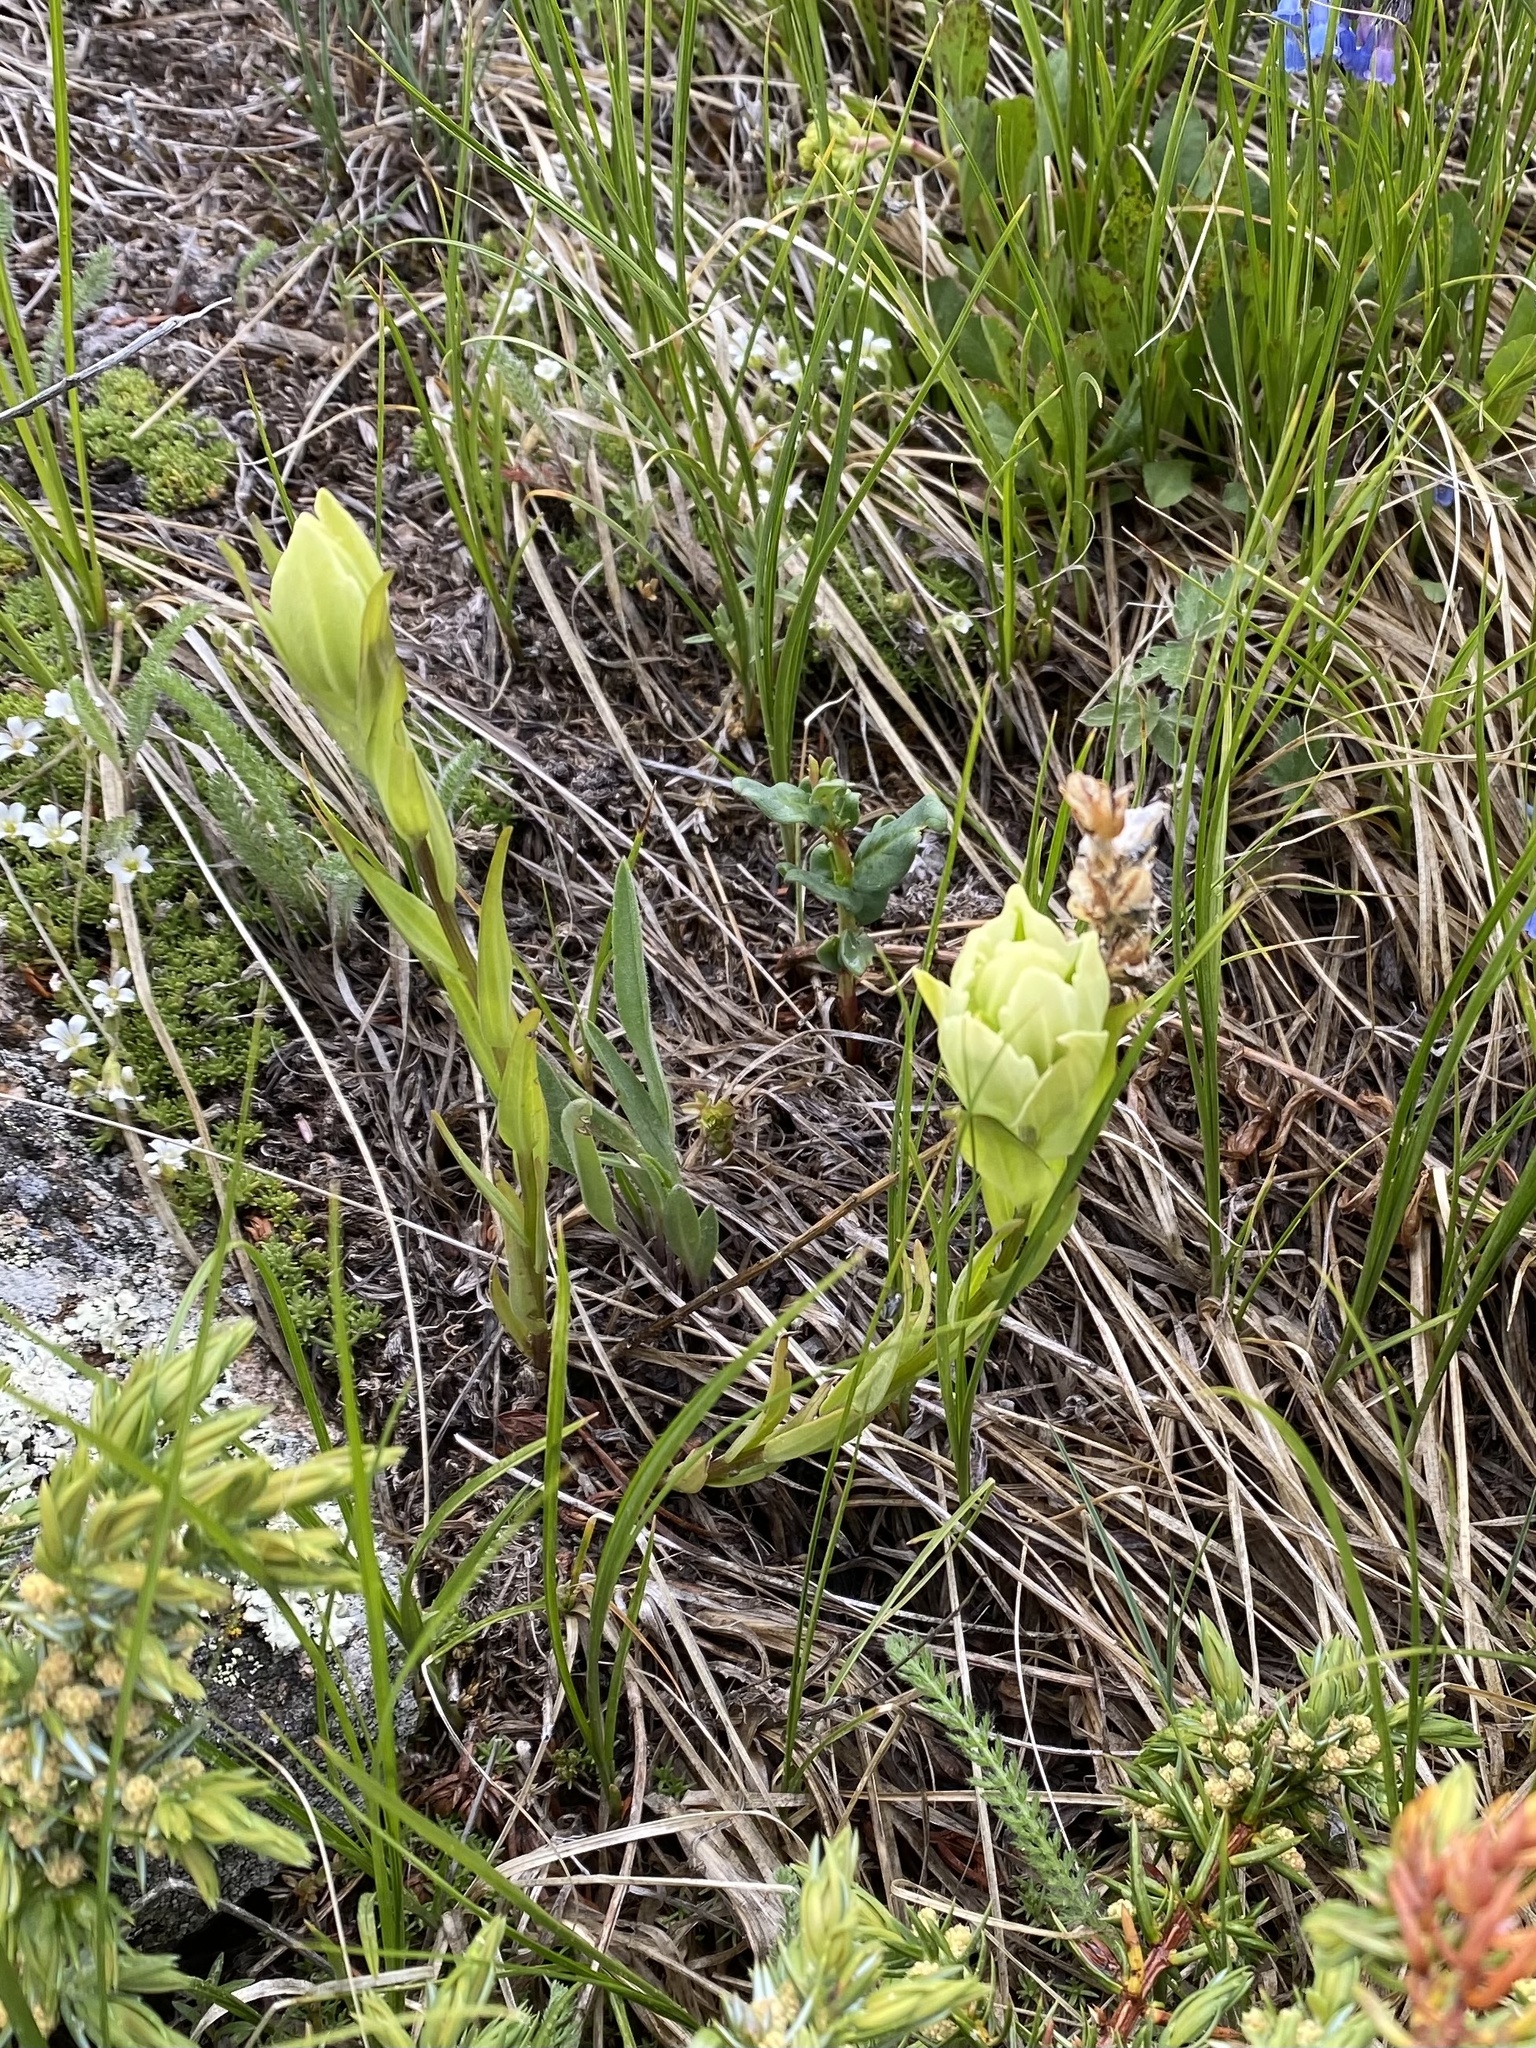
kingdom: Plantae
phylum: Tracheophyta
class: Magnoliopsida
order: Lamiales
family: Orobanchaceae
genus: Castilleja
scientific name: Castilleja occidentalis
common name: Western paintbrush
